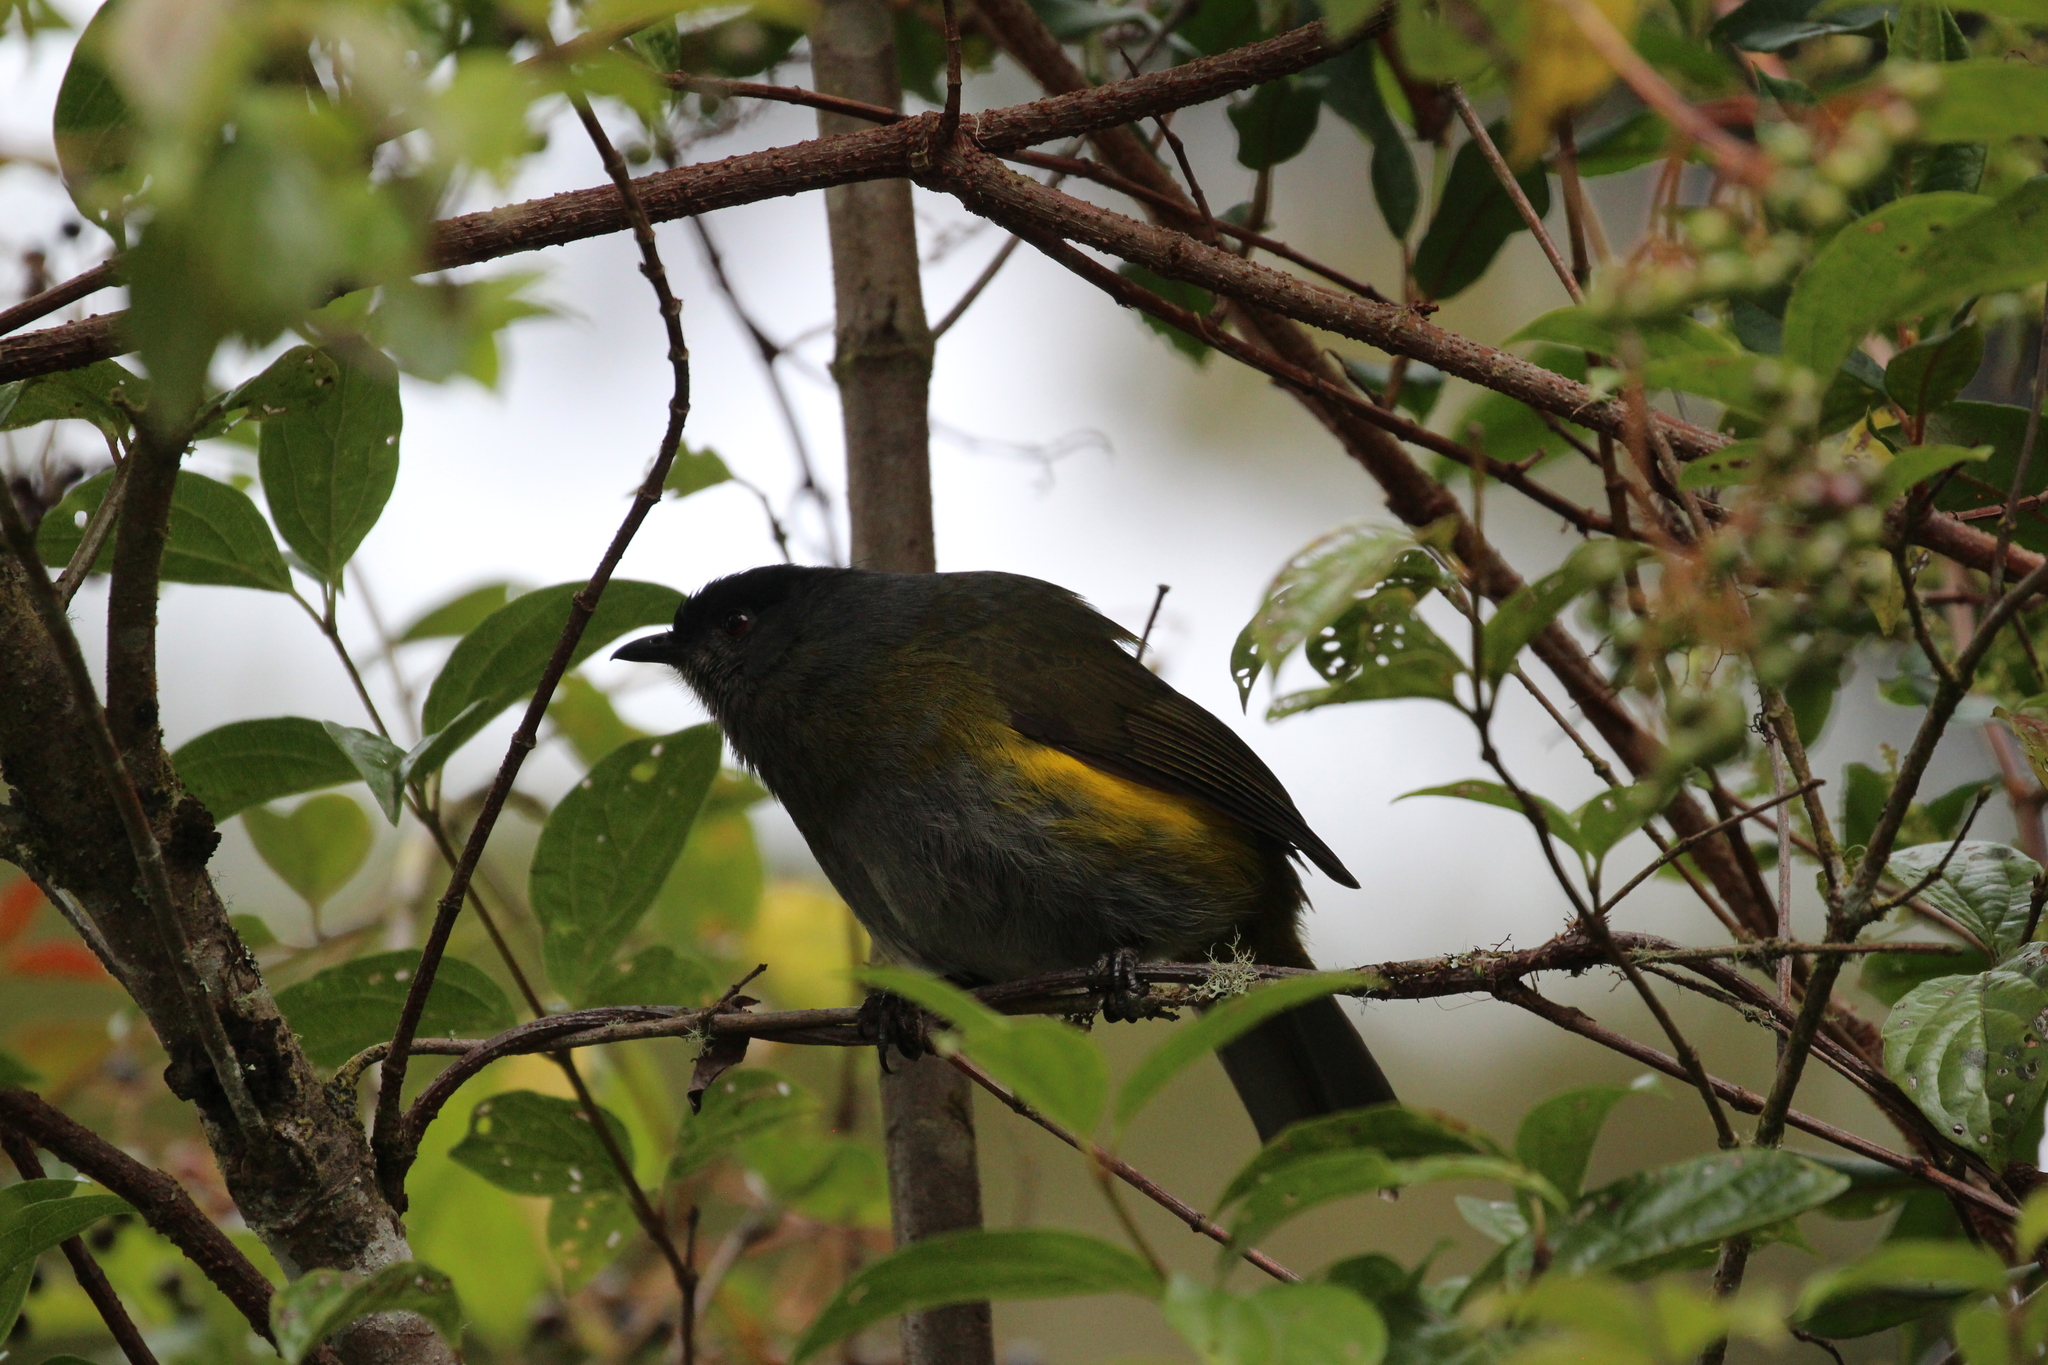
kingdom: Animalia
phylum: Chordata
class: Aves
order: Passeriformes
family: Ptilogonatidae
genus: Phainoptila
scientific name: Phainoptila melanoxantha
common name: Black-and-yellow phainoptila
